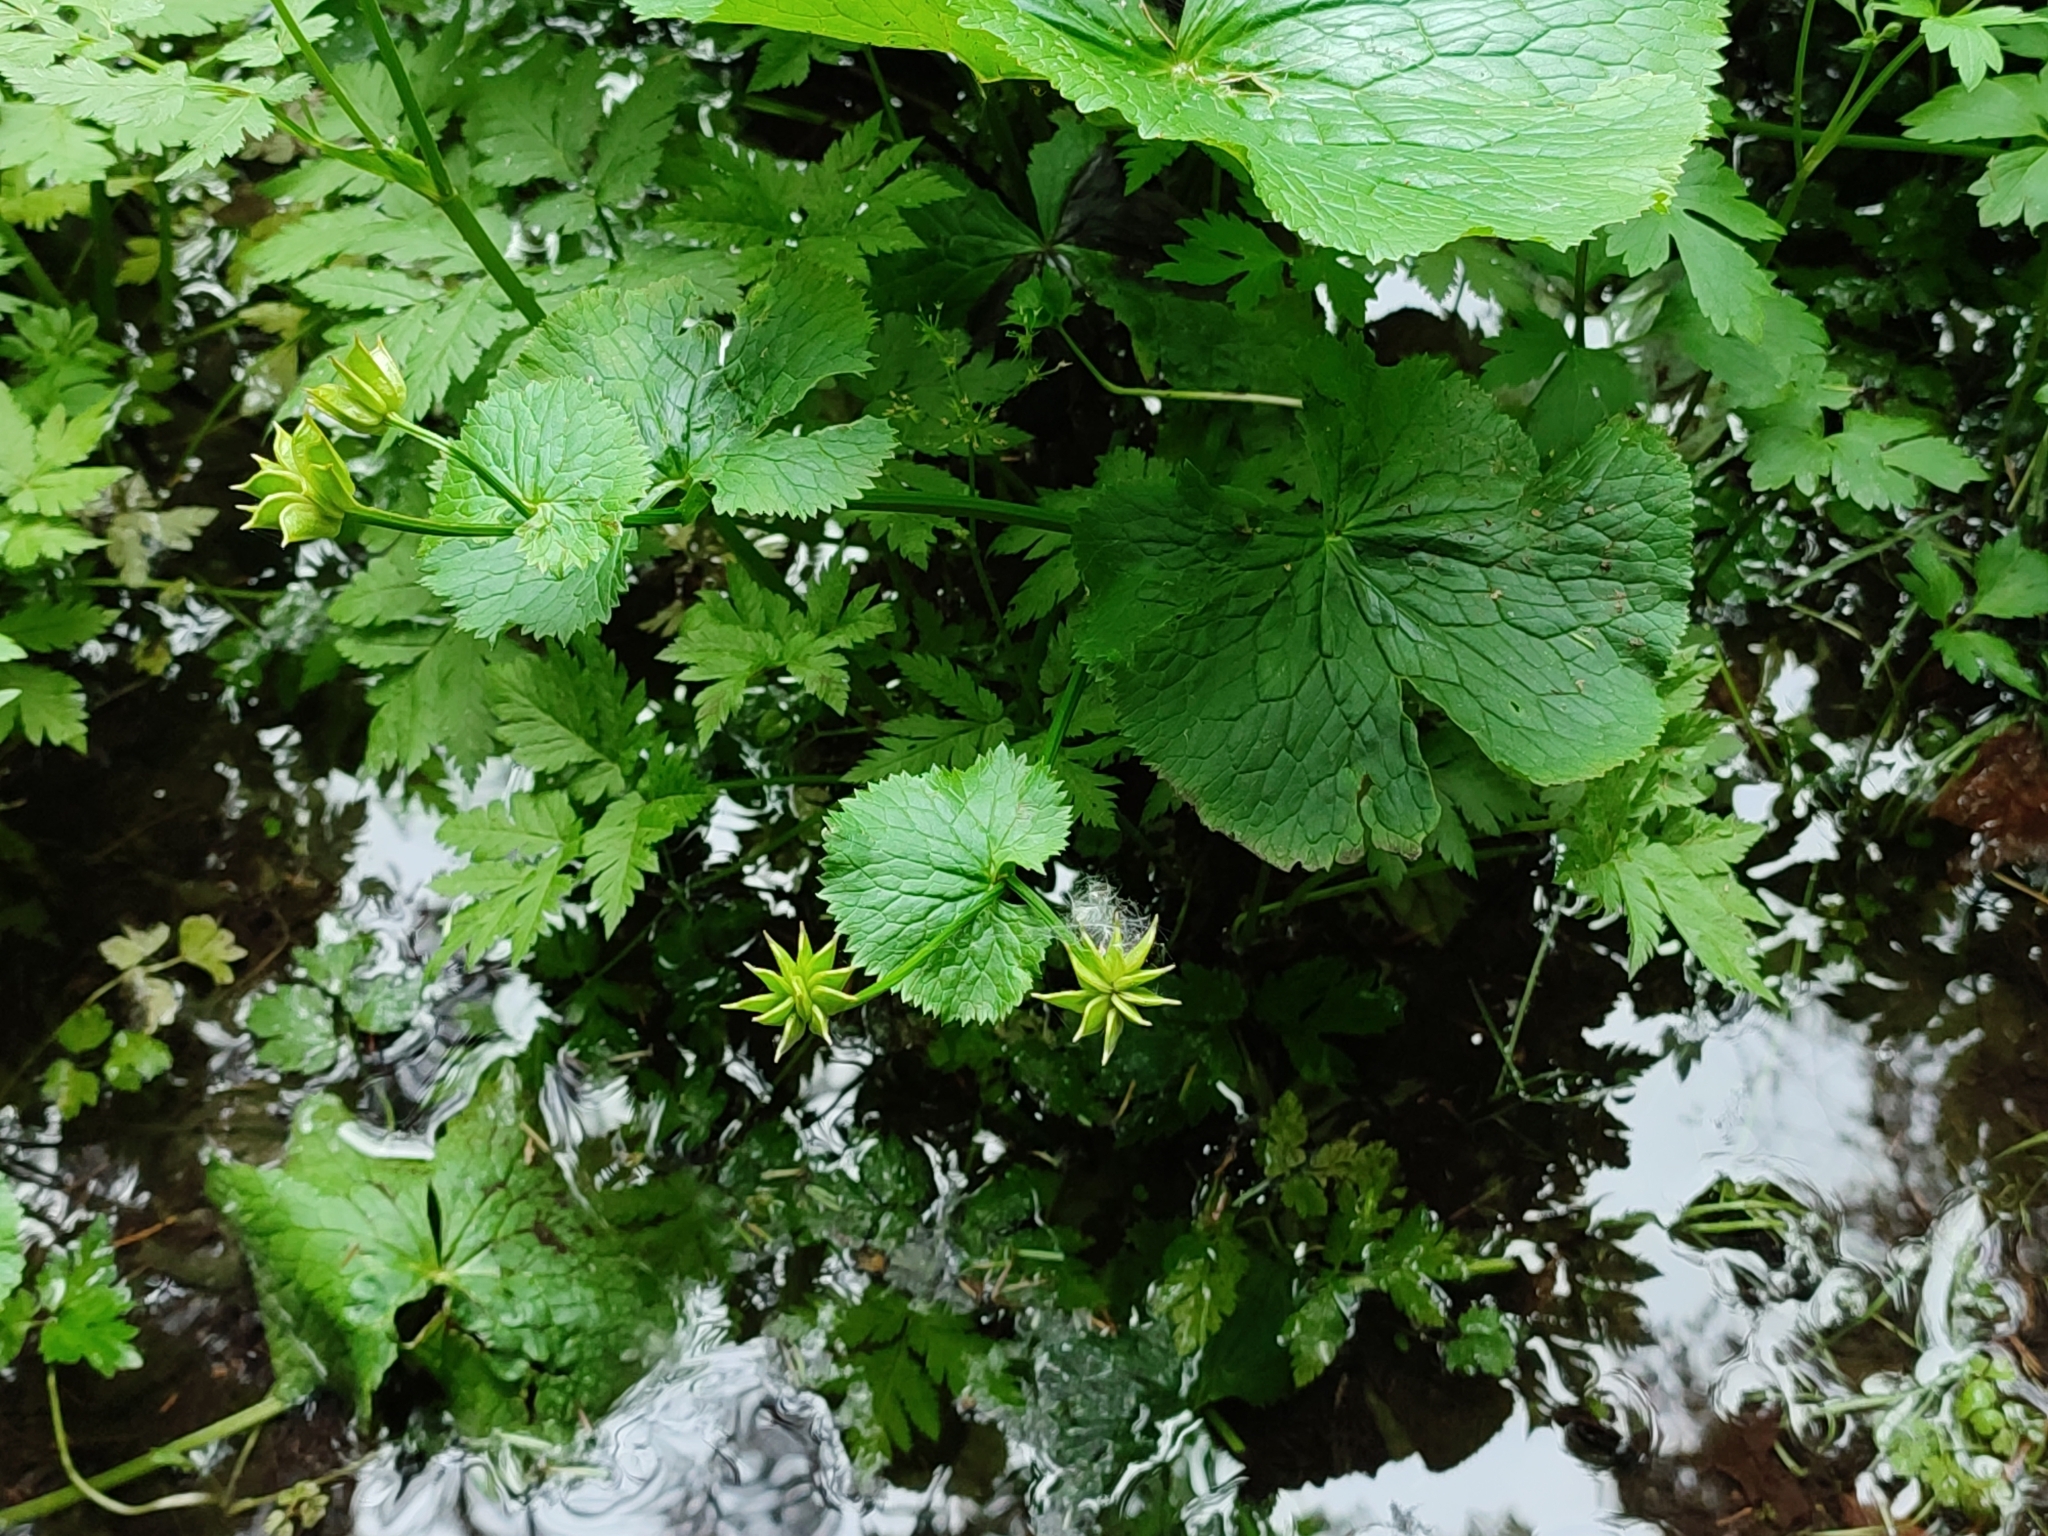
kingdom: Plantae
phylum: Tracheophyta
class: Magnoliopsida
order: Ranunculales
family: Ranunculaceae
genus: Caltha
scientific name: Caltha palustris
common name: Marsh marigold
